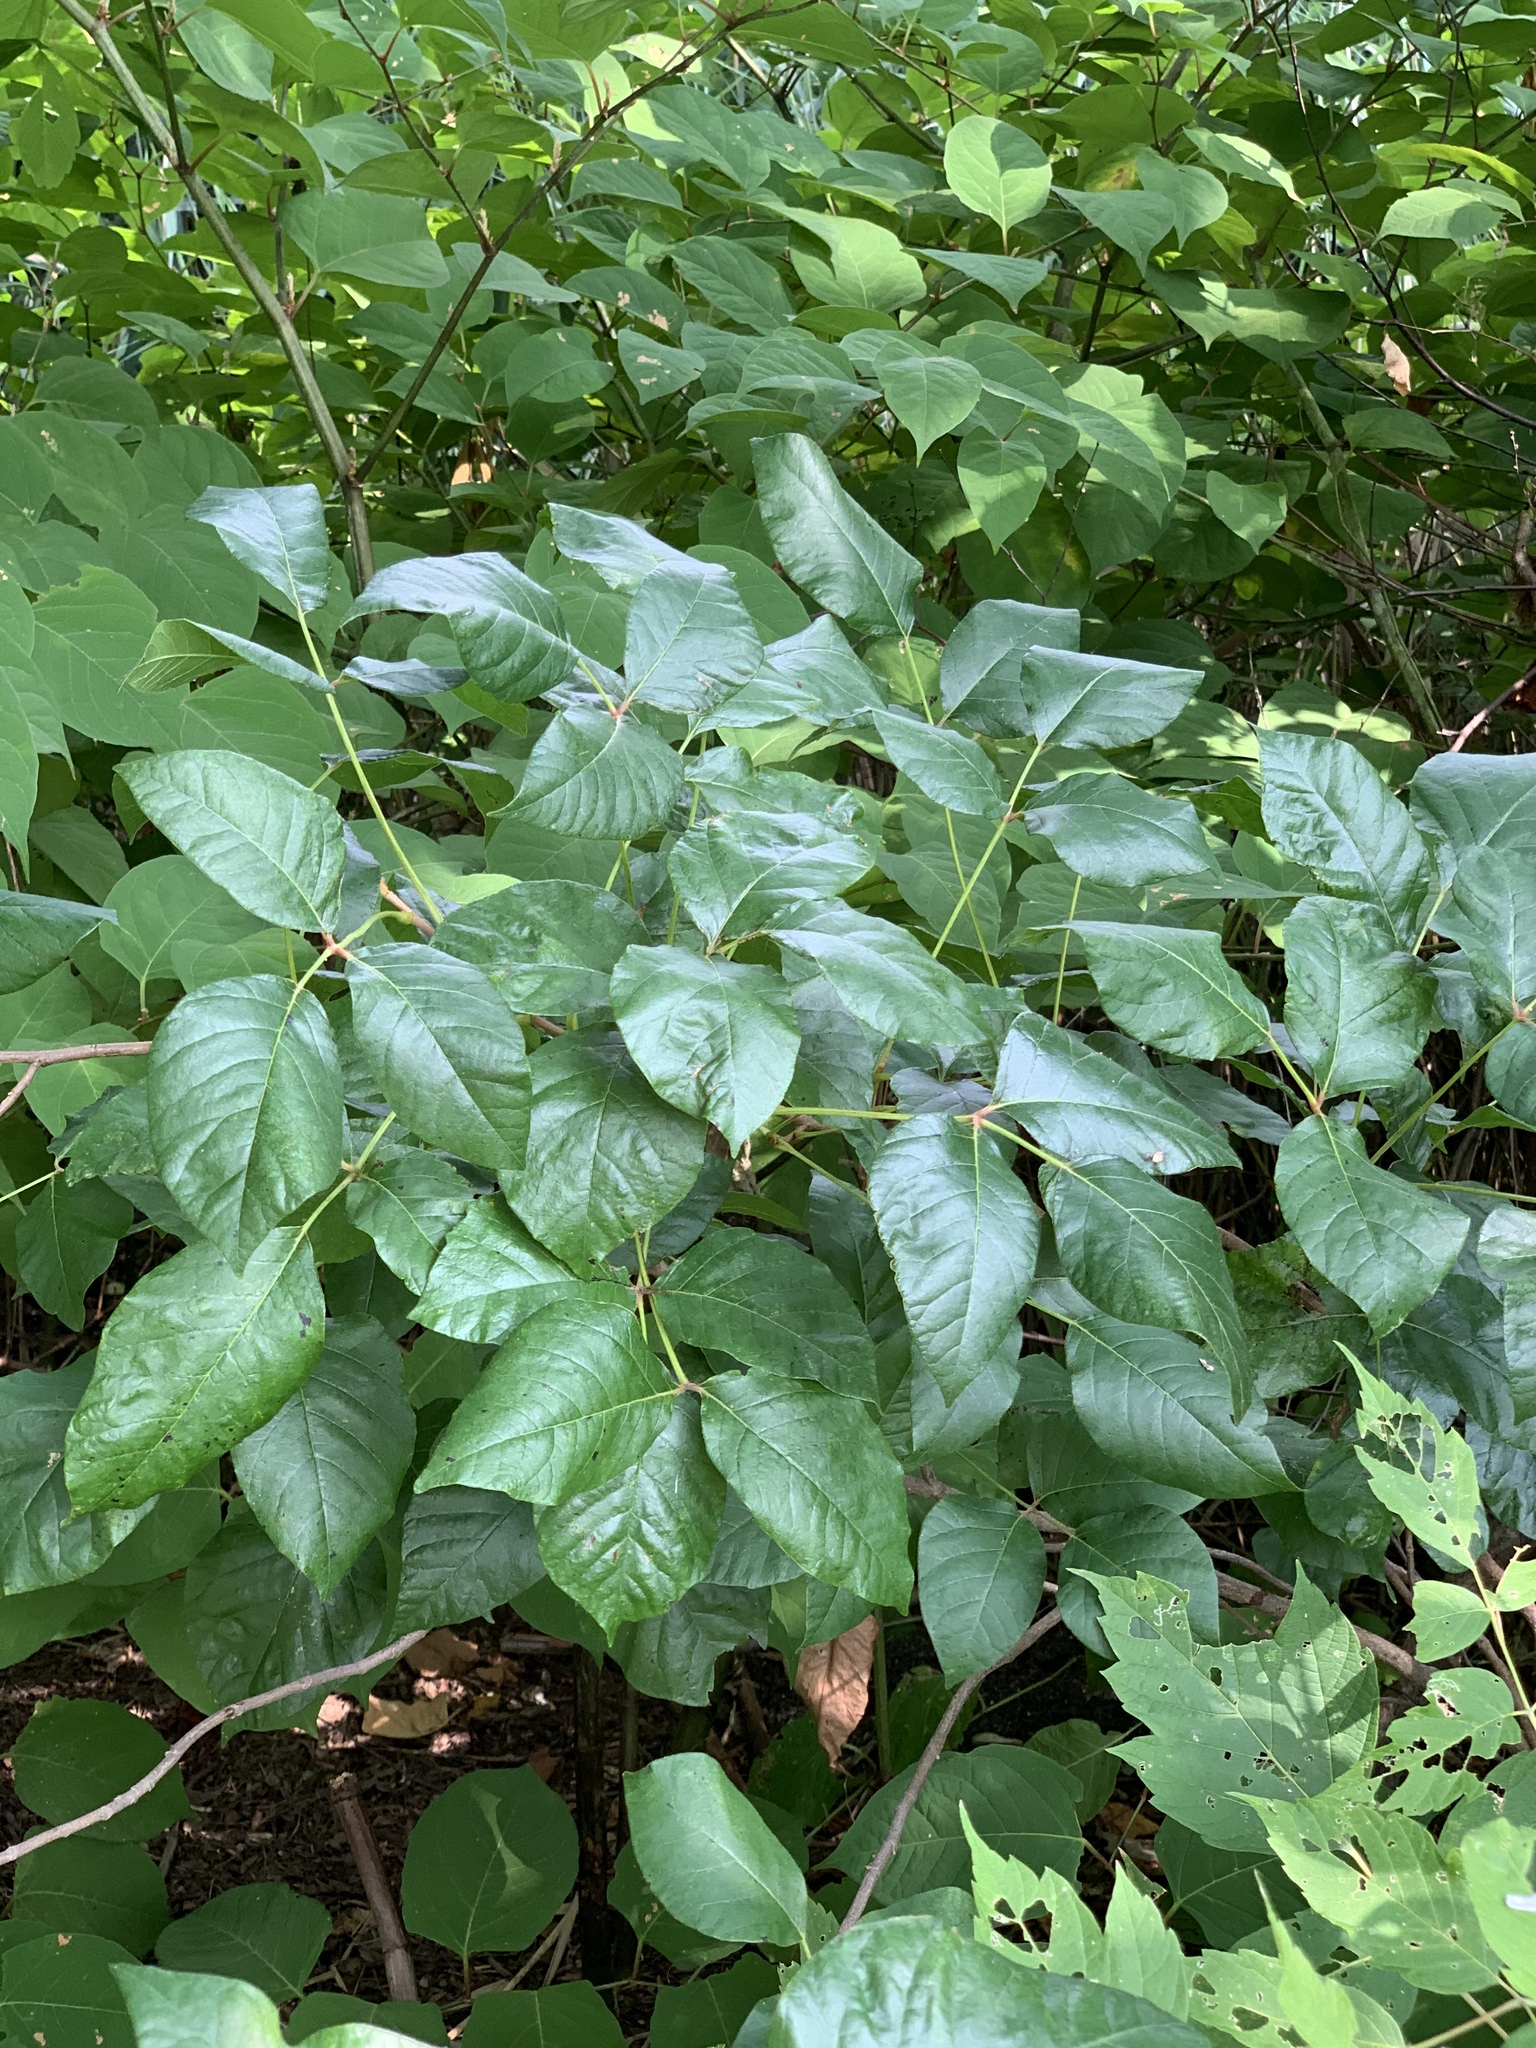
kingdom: Plantae
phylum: Tracheophyta
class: Magnoliopsida
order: Sapindales
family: Anacardiaceae
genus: Toxicodendron
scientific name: Toxicodendron radicans
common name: Poison ivy
